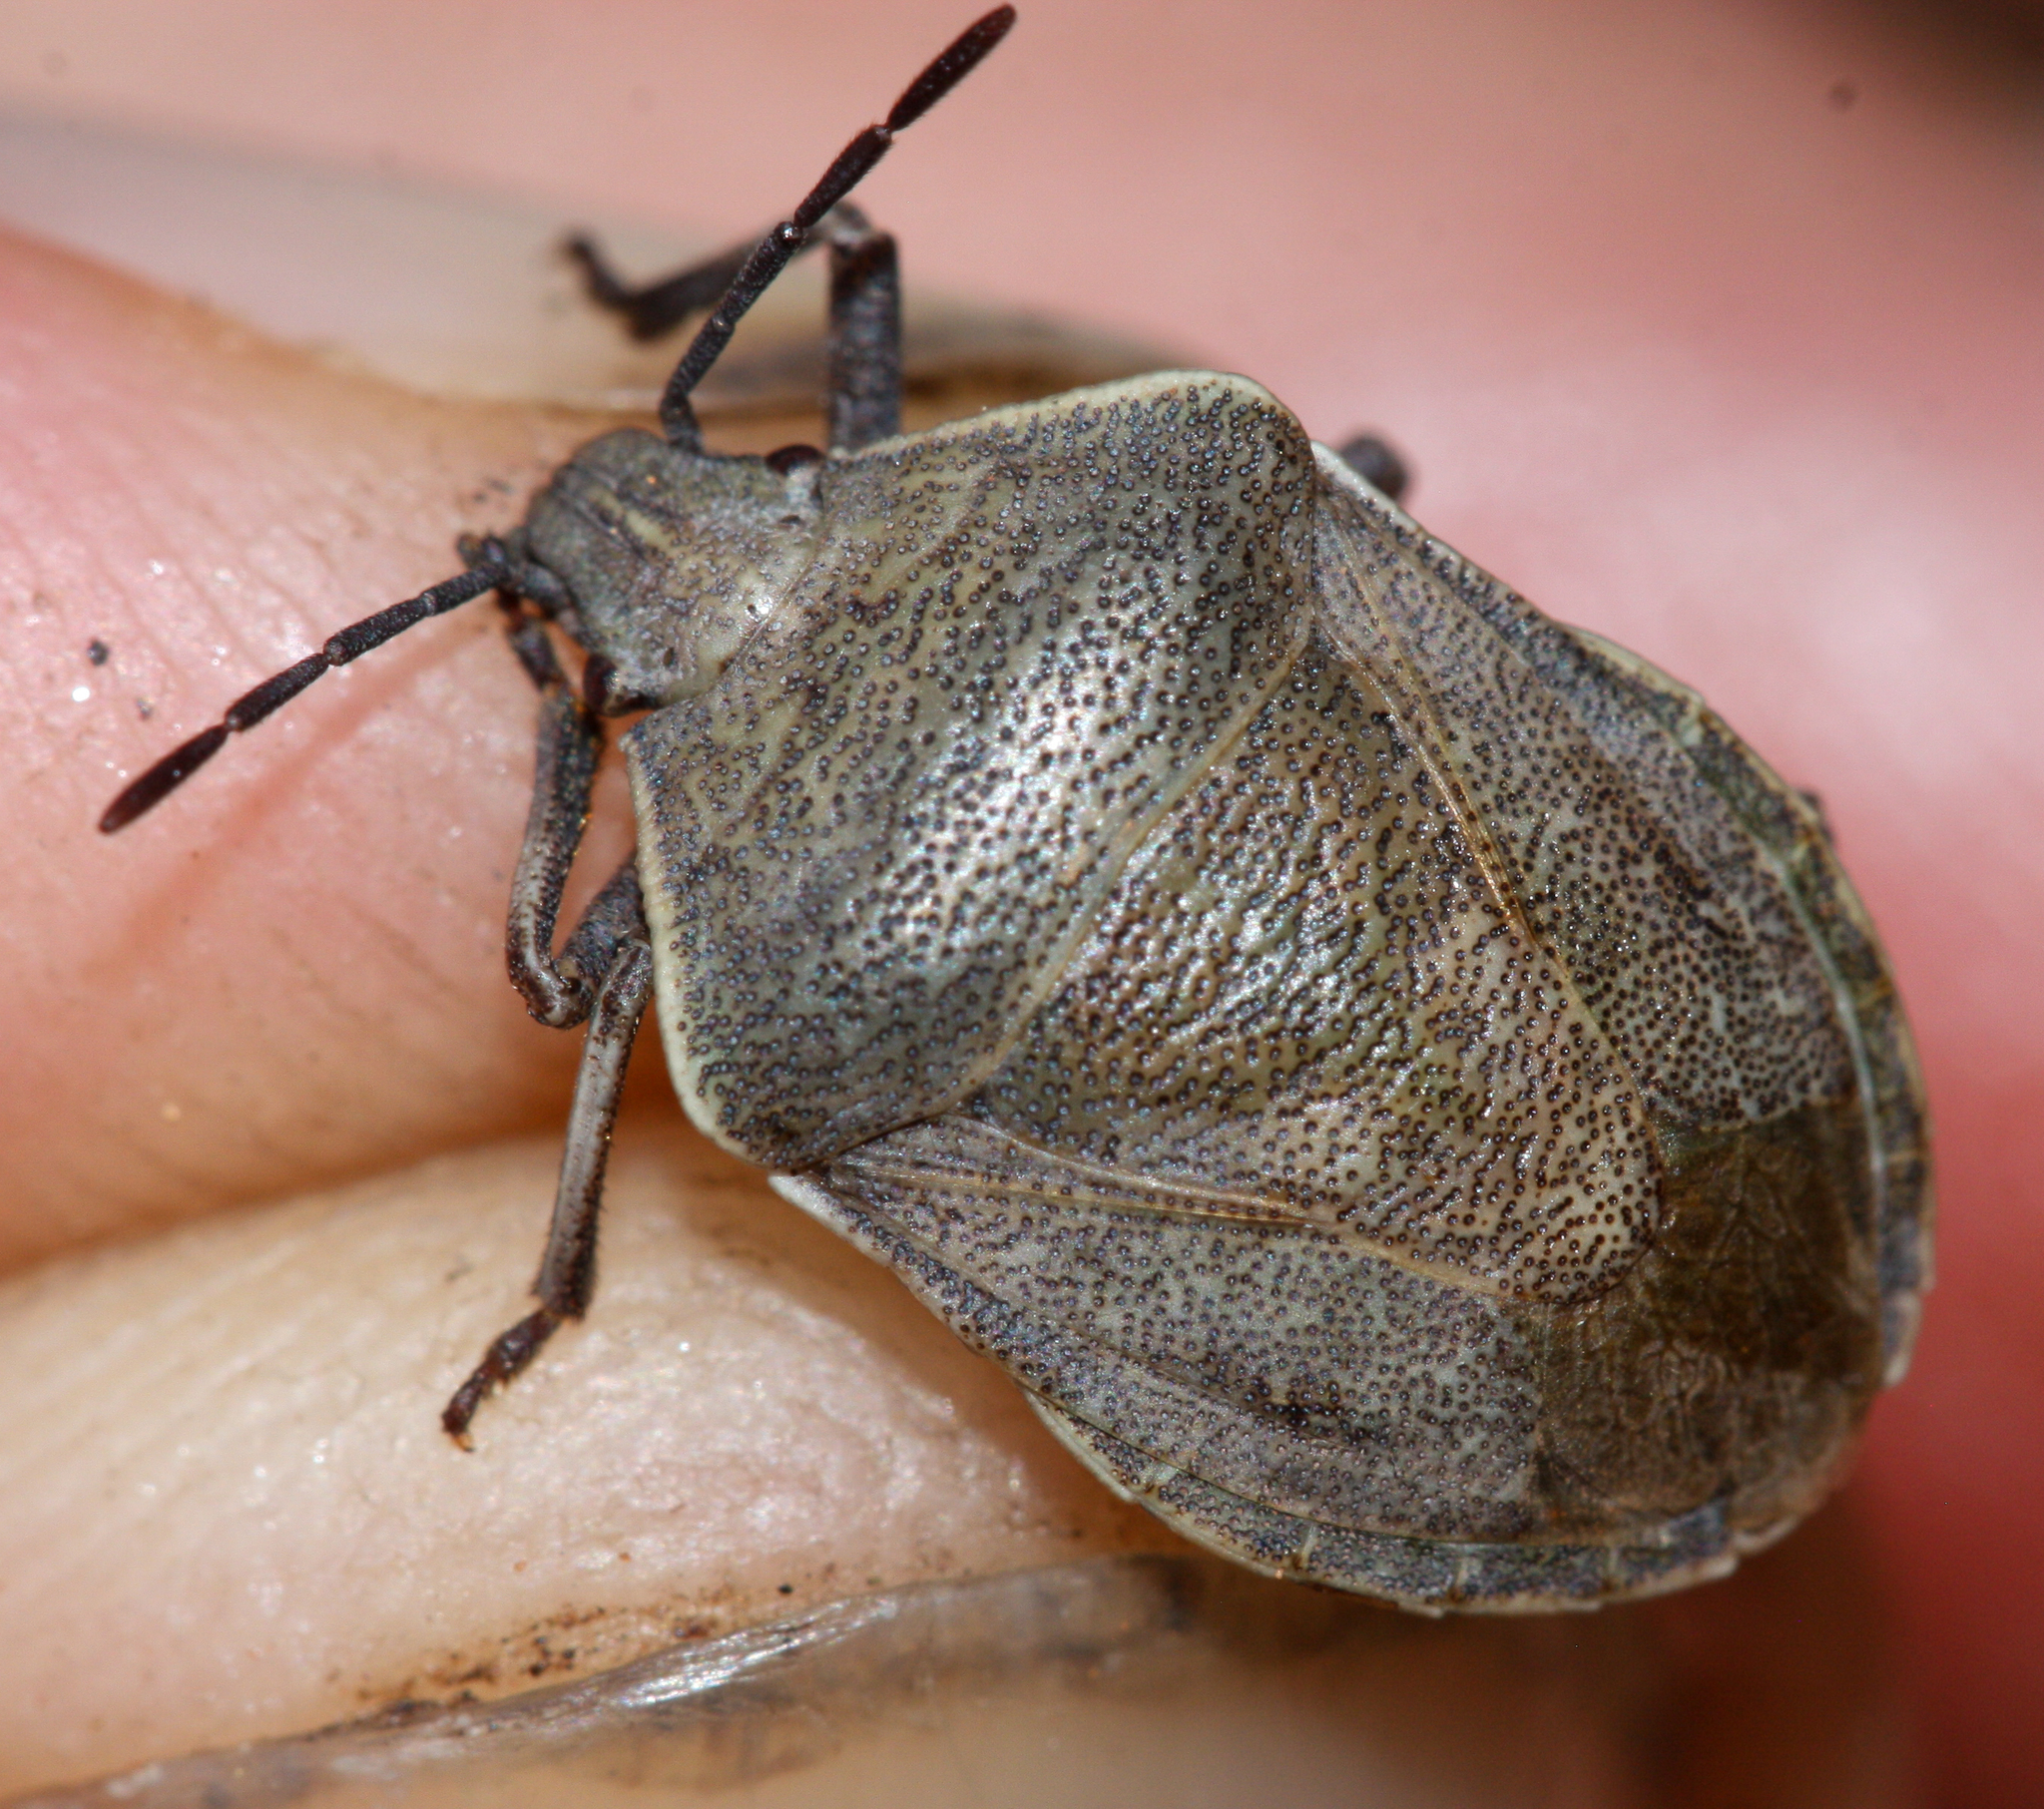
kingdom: Animalia
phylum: Arthropoda
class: Insecta
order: Hemiptera
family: Pentatomidae
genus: Hymenarcys
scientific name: Hymenarcys crassa
